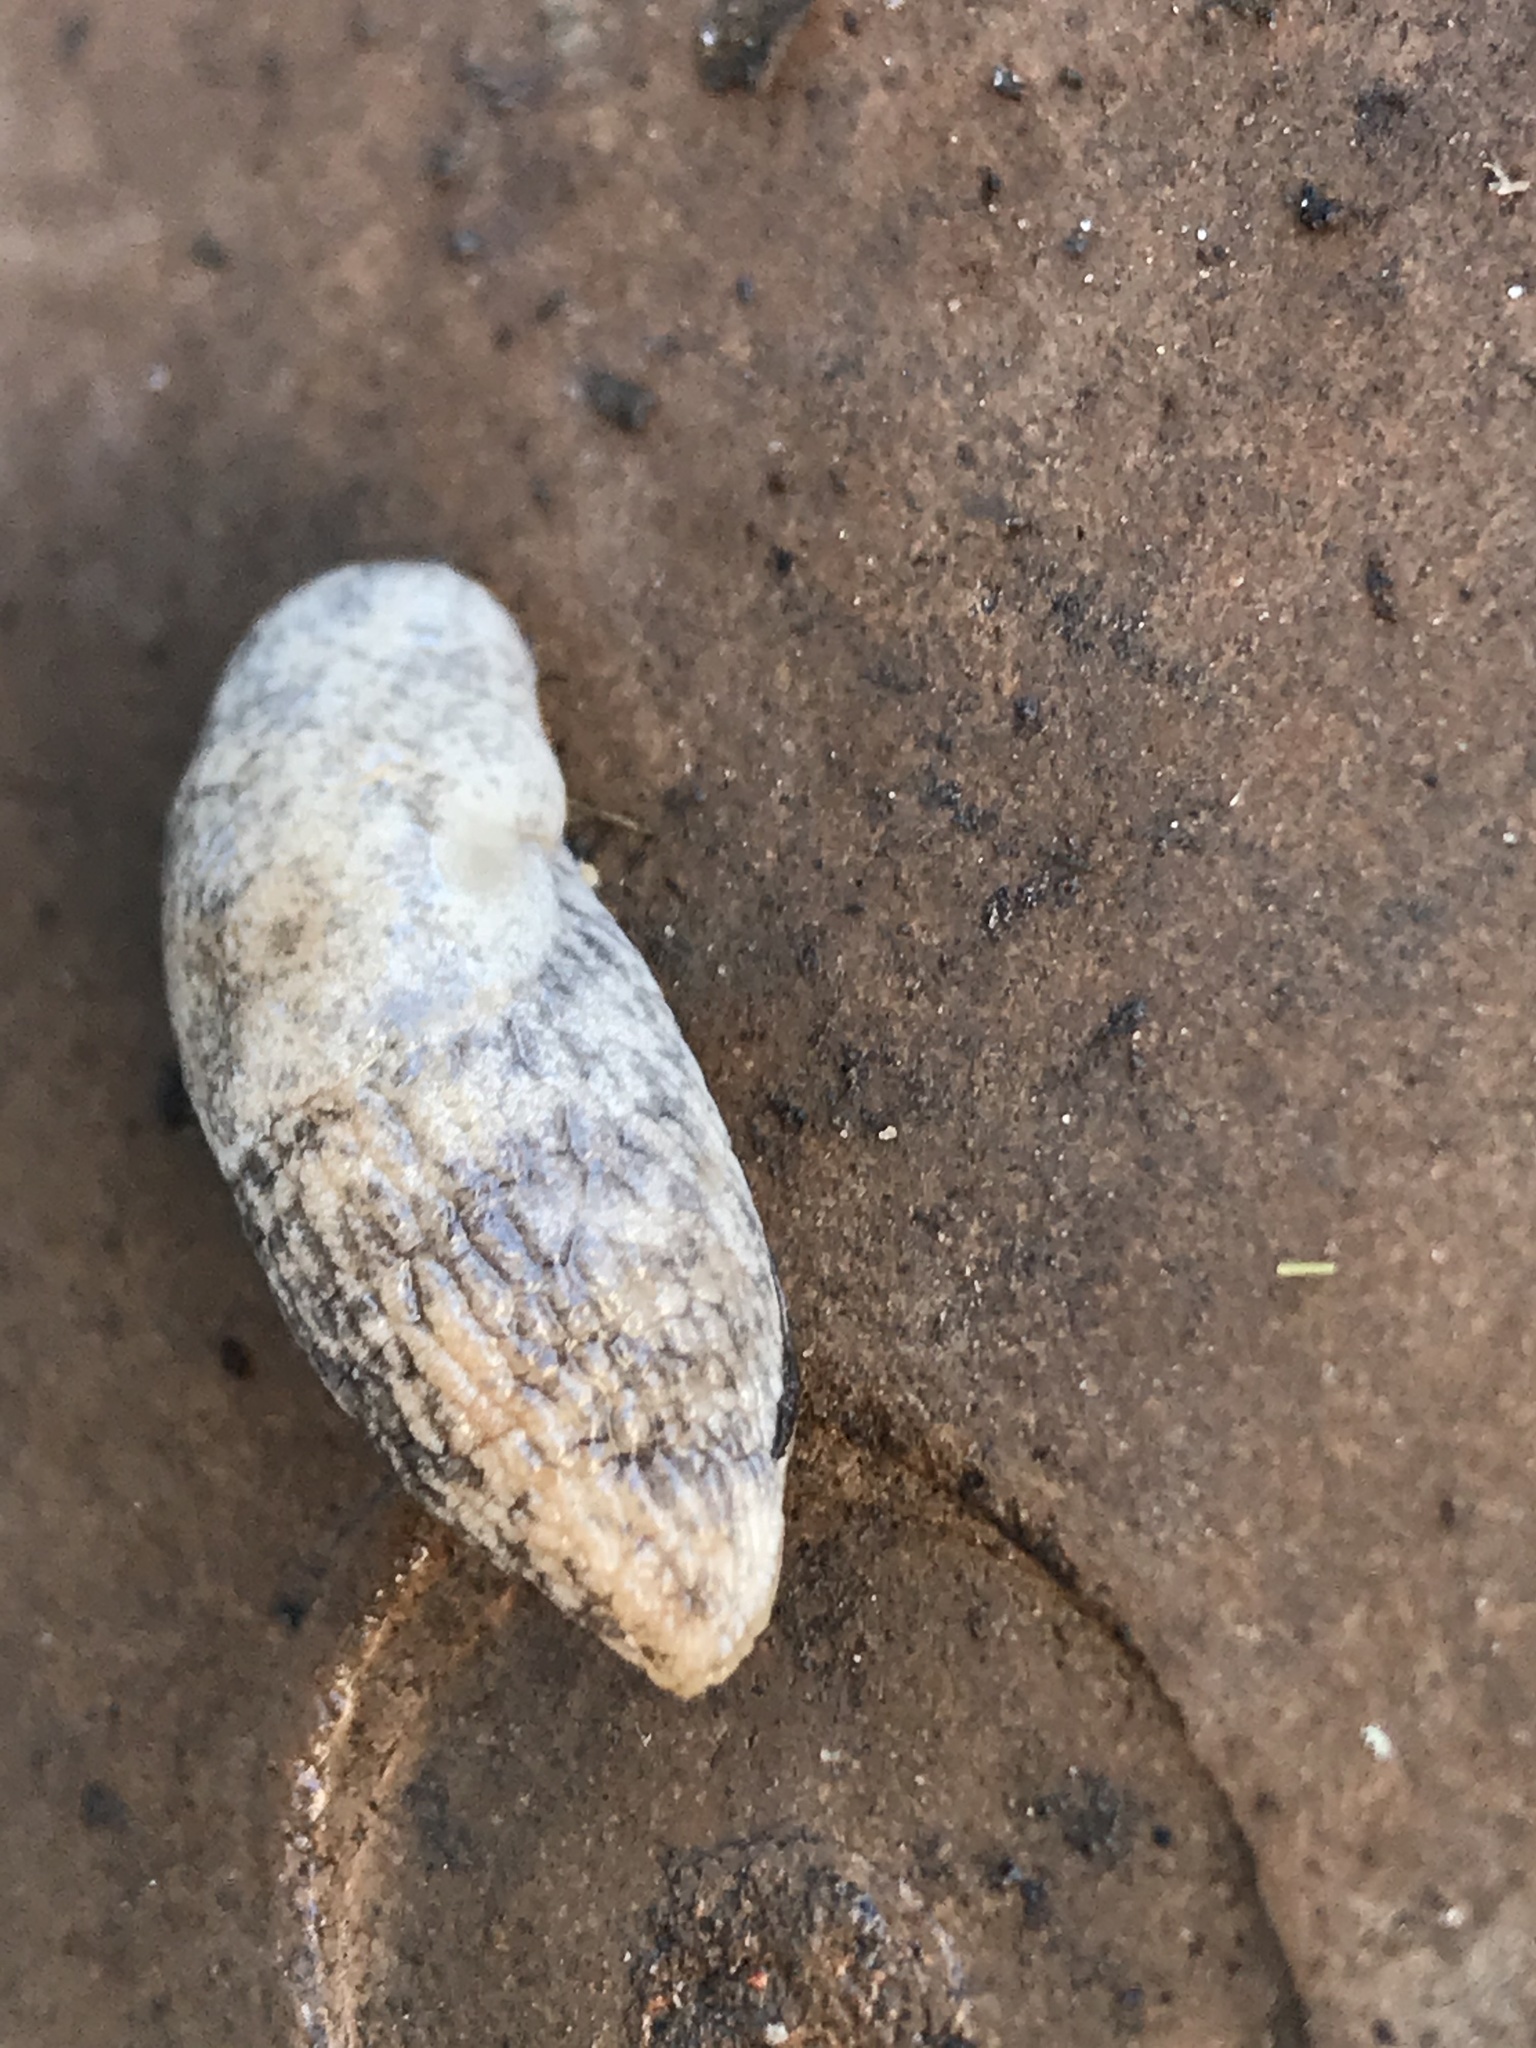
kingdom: Animalia
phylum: Mollusca
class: Gastropoda
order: Stylommatophora
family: Agriolimacidae
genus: Deroceras
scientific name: Deroceras reticulatum
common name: Gray field slug
